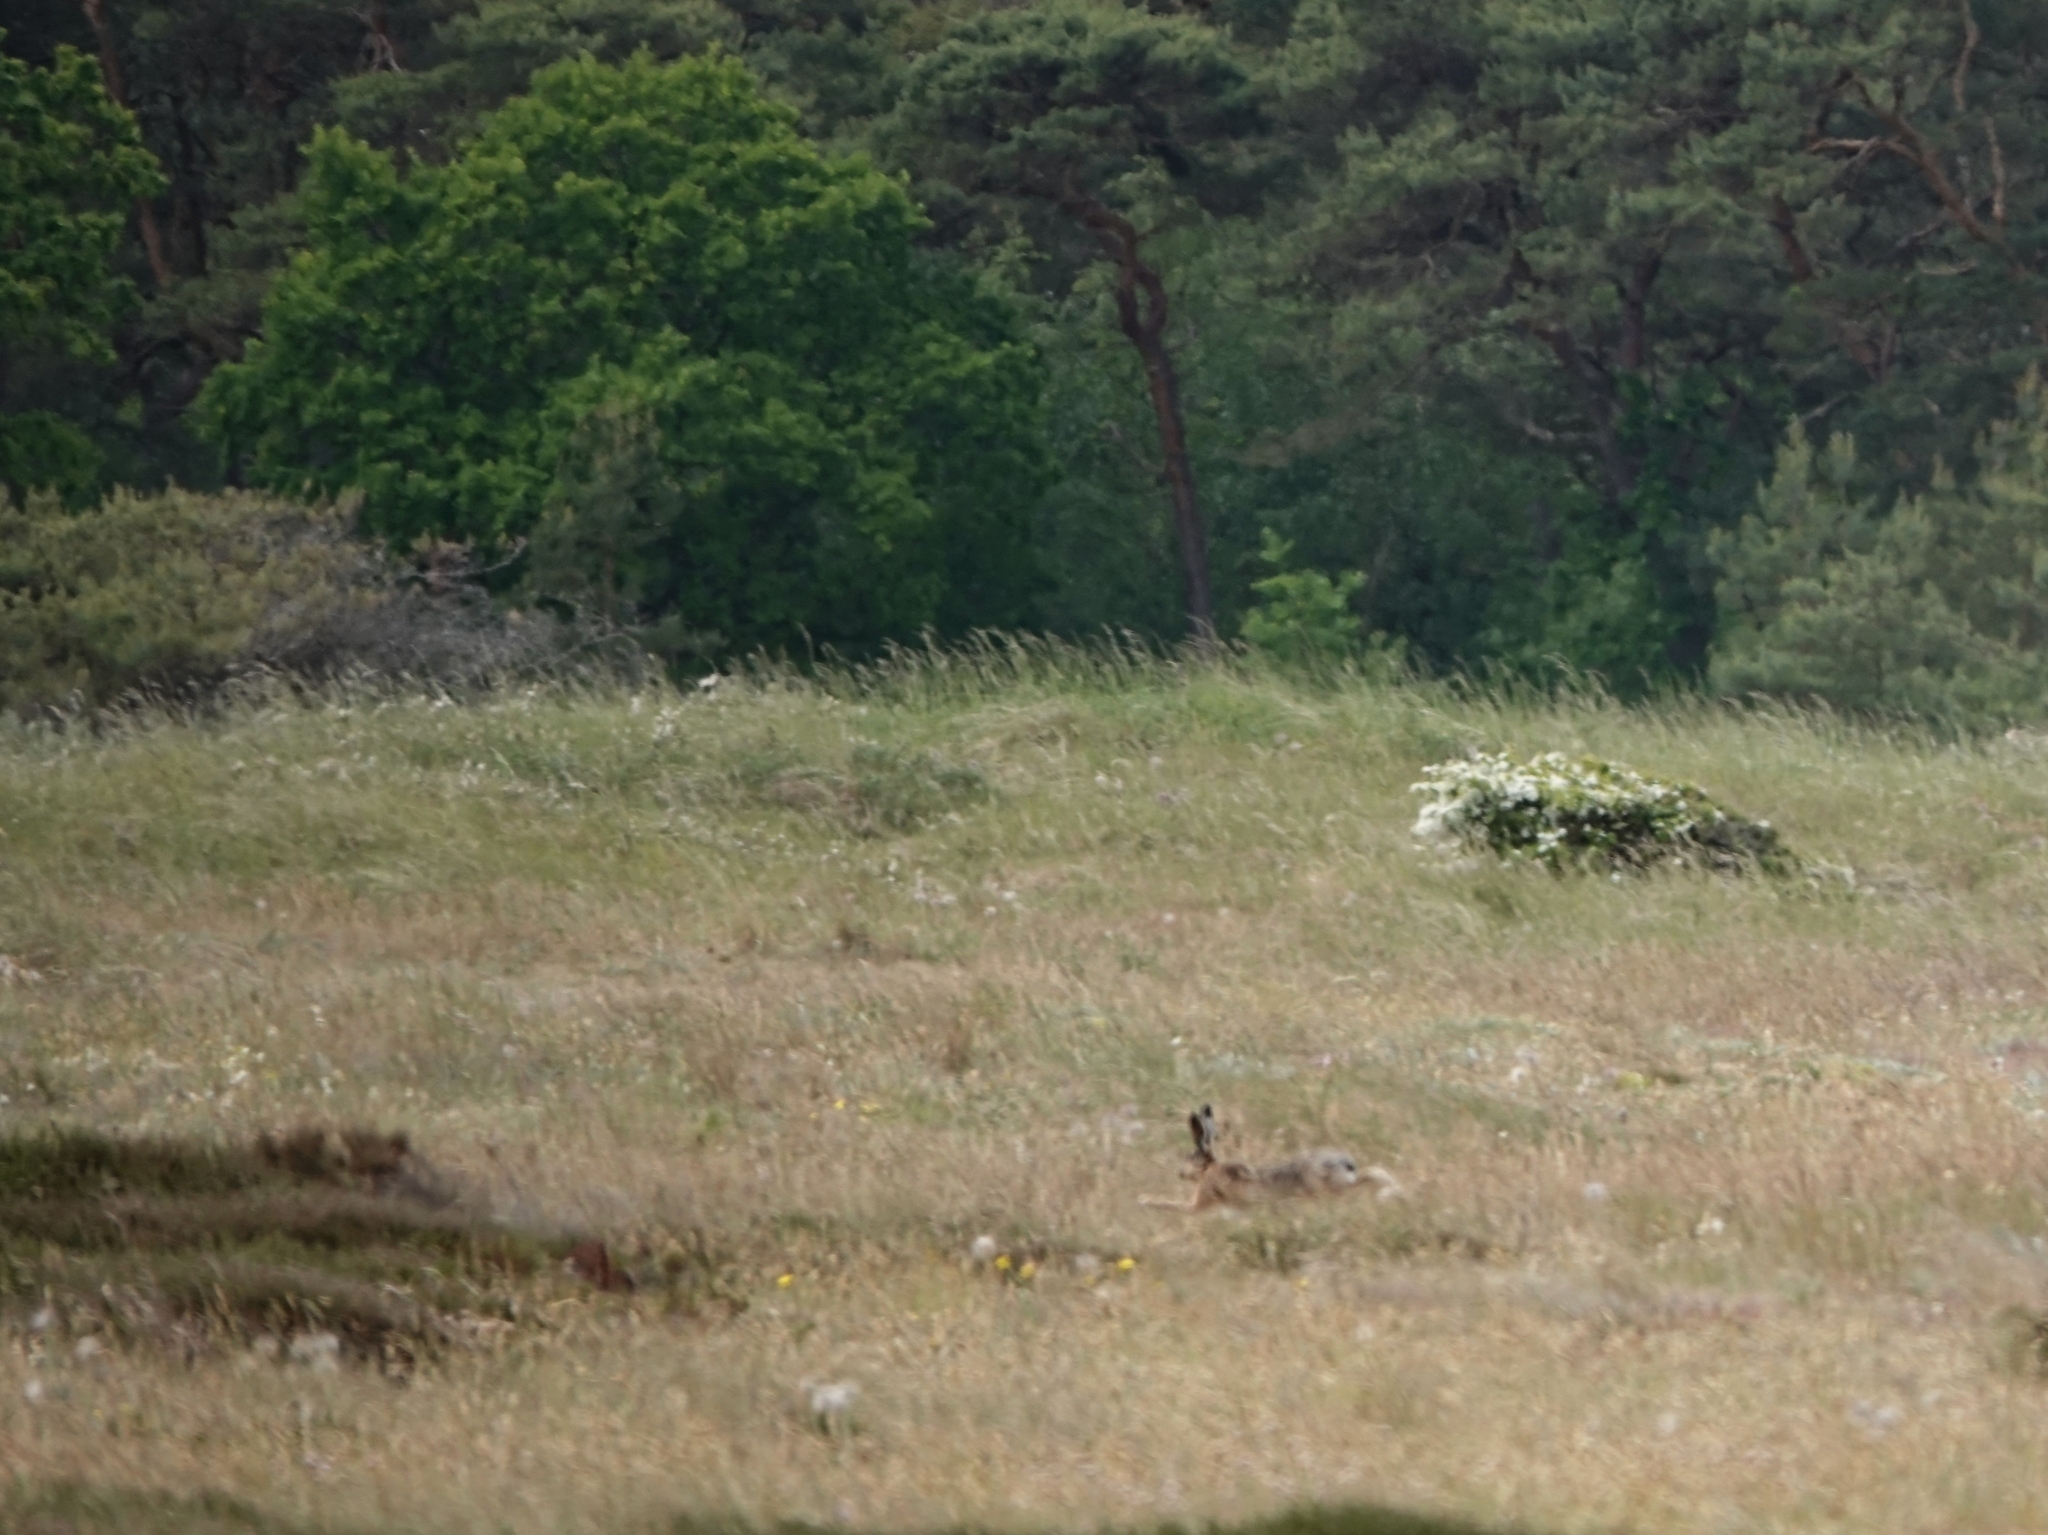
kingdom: Animalia
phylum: Chordata
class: Mammalia
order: Lagomorpha
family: Leporidae
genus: Lepus
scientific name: Lepus europaeus
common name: European hare
